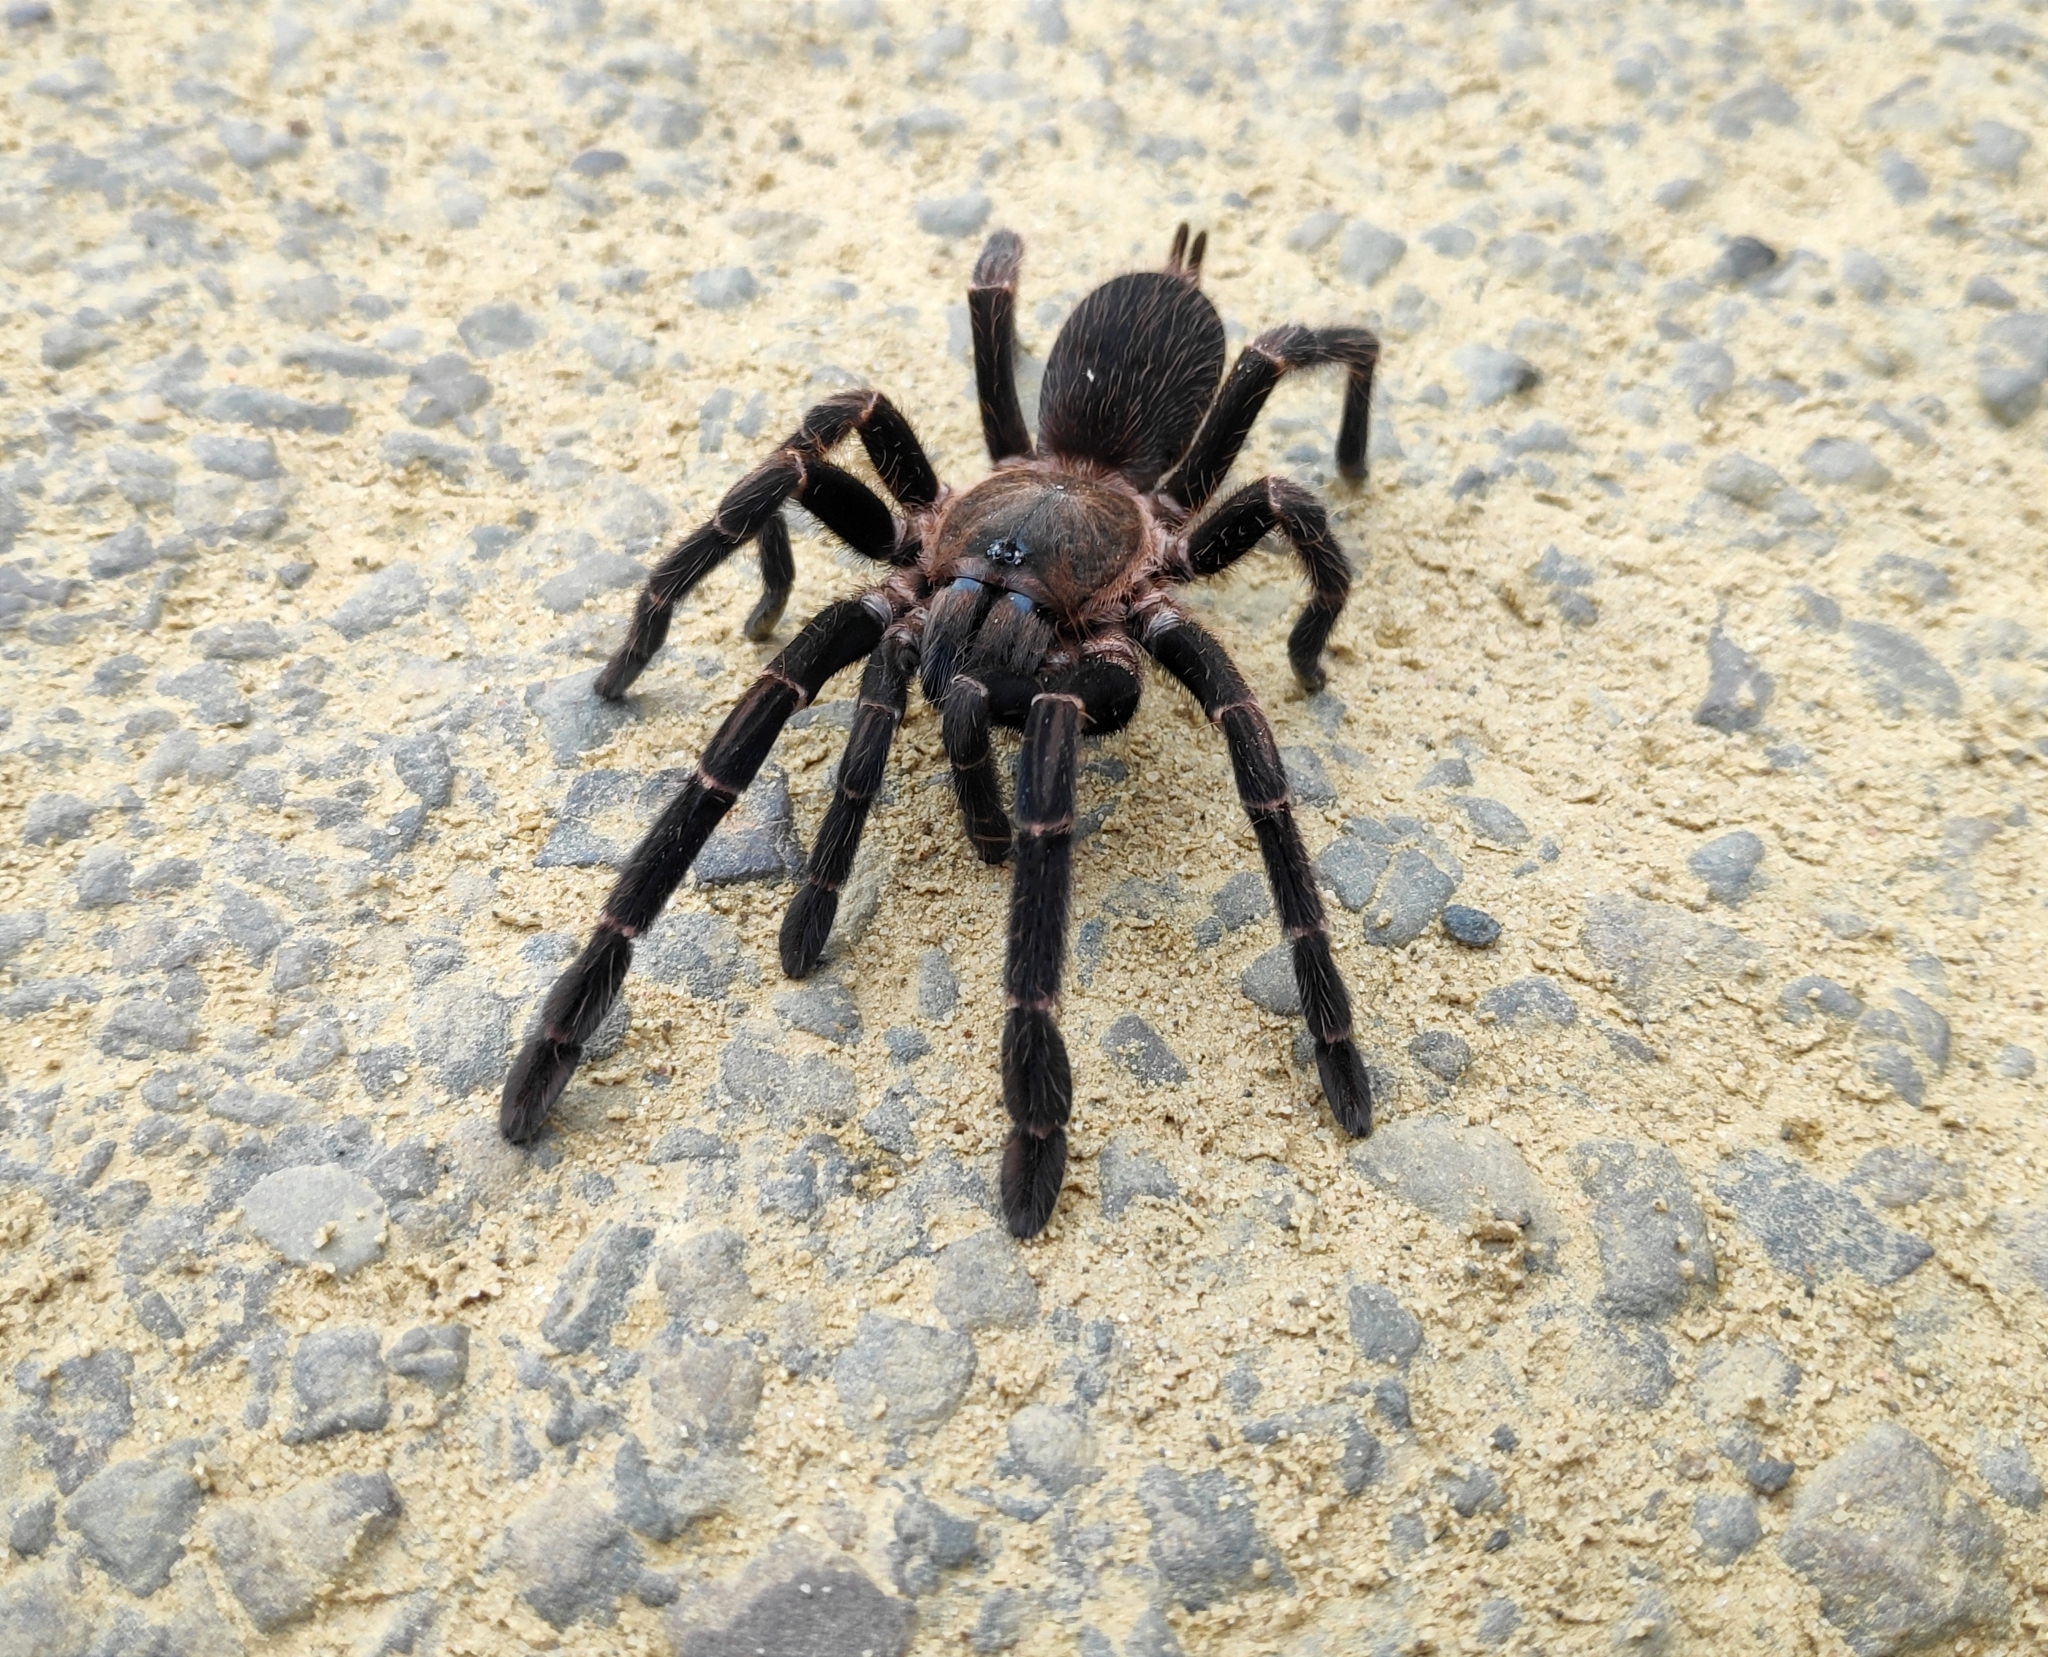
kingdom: Animalia
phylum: Arthropoda
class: Arachnida
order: Araneae
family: Theraphosidae
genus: Chilobrachys
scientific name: Chilobrachys stridulans
